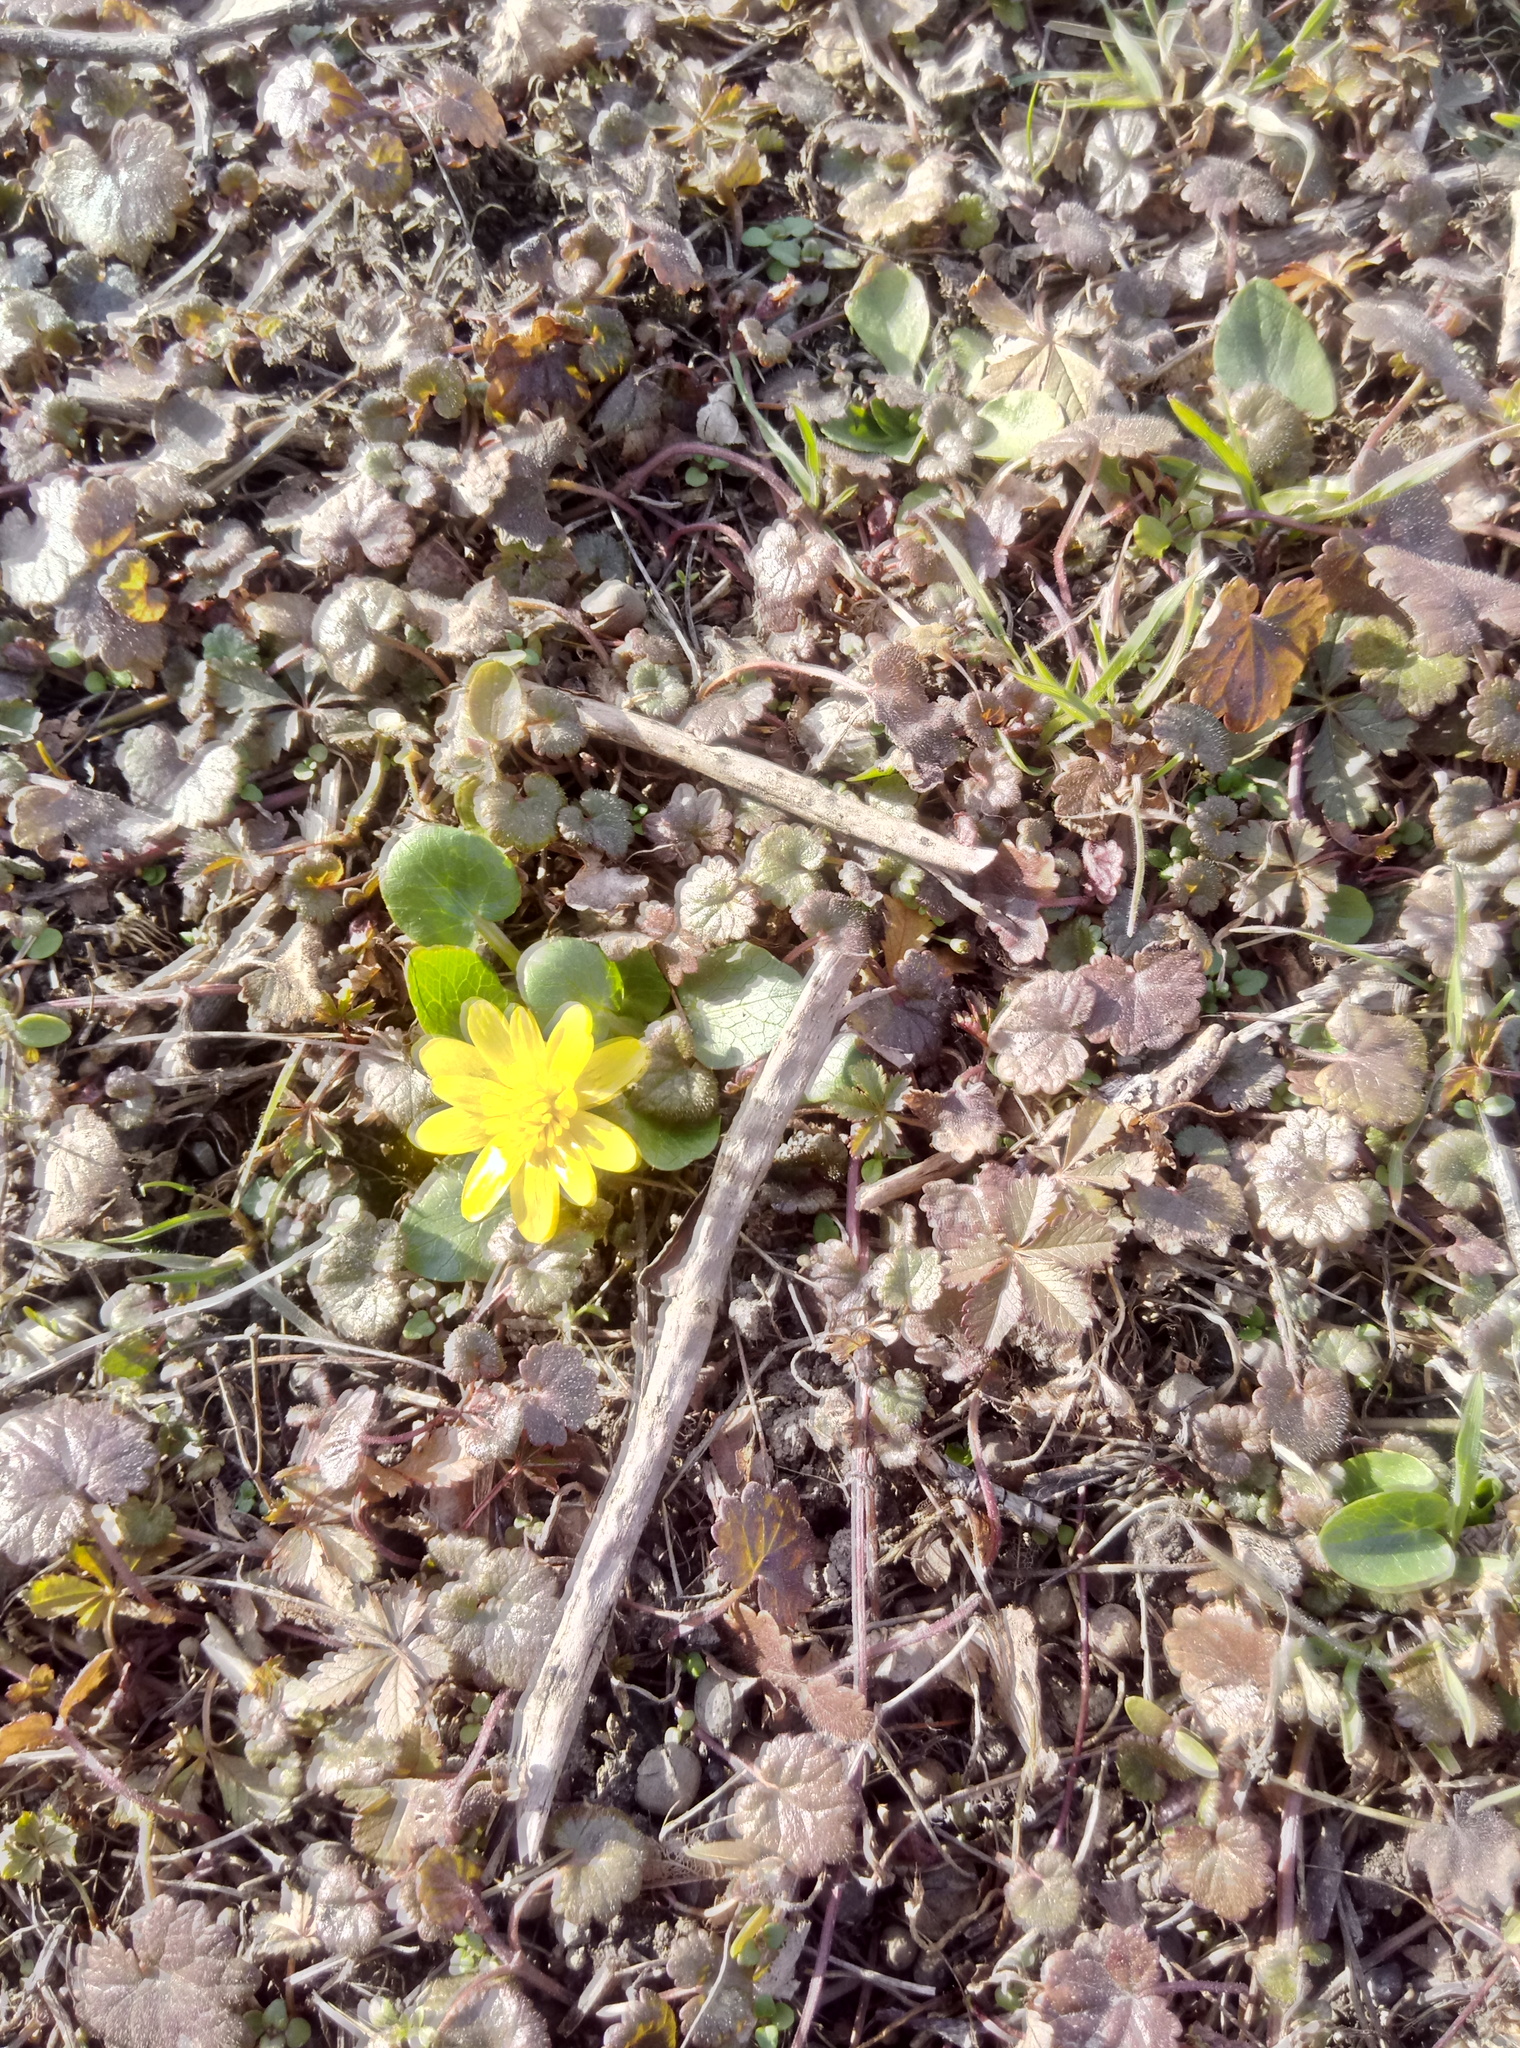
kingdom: Plantae
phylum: Tracheophyta
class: Magnoliopsida
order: Ranunculales
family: Ranunculaceae
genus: Ficaria
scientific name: Ficaria verna
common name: Lesser celandine
